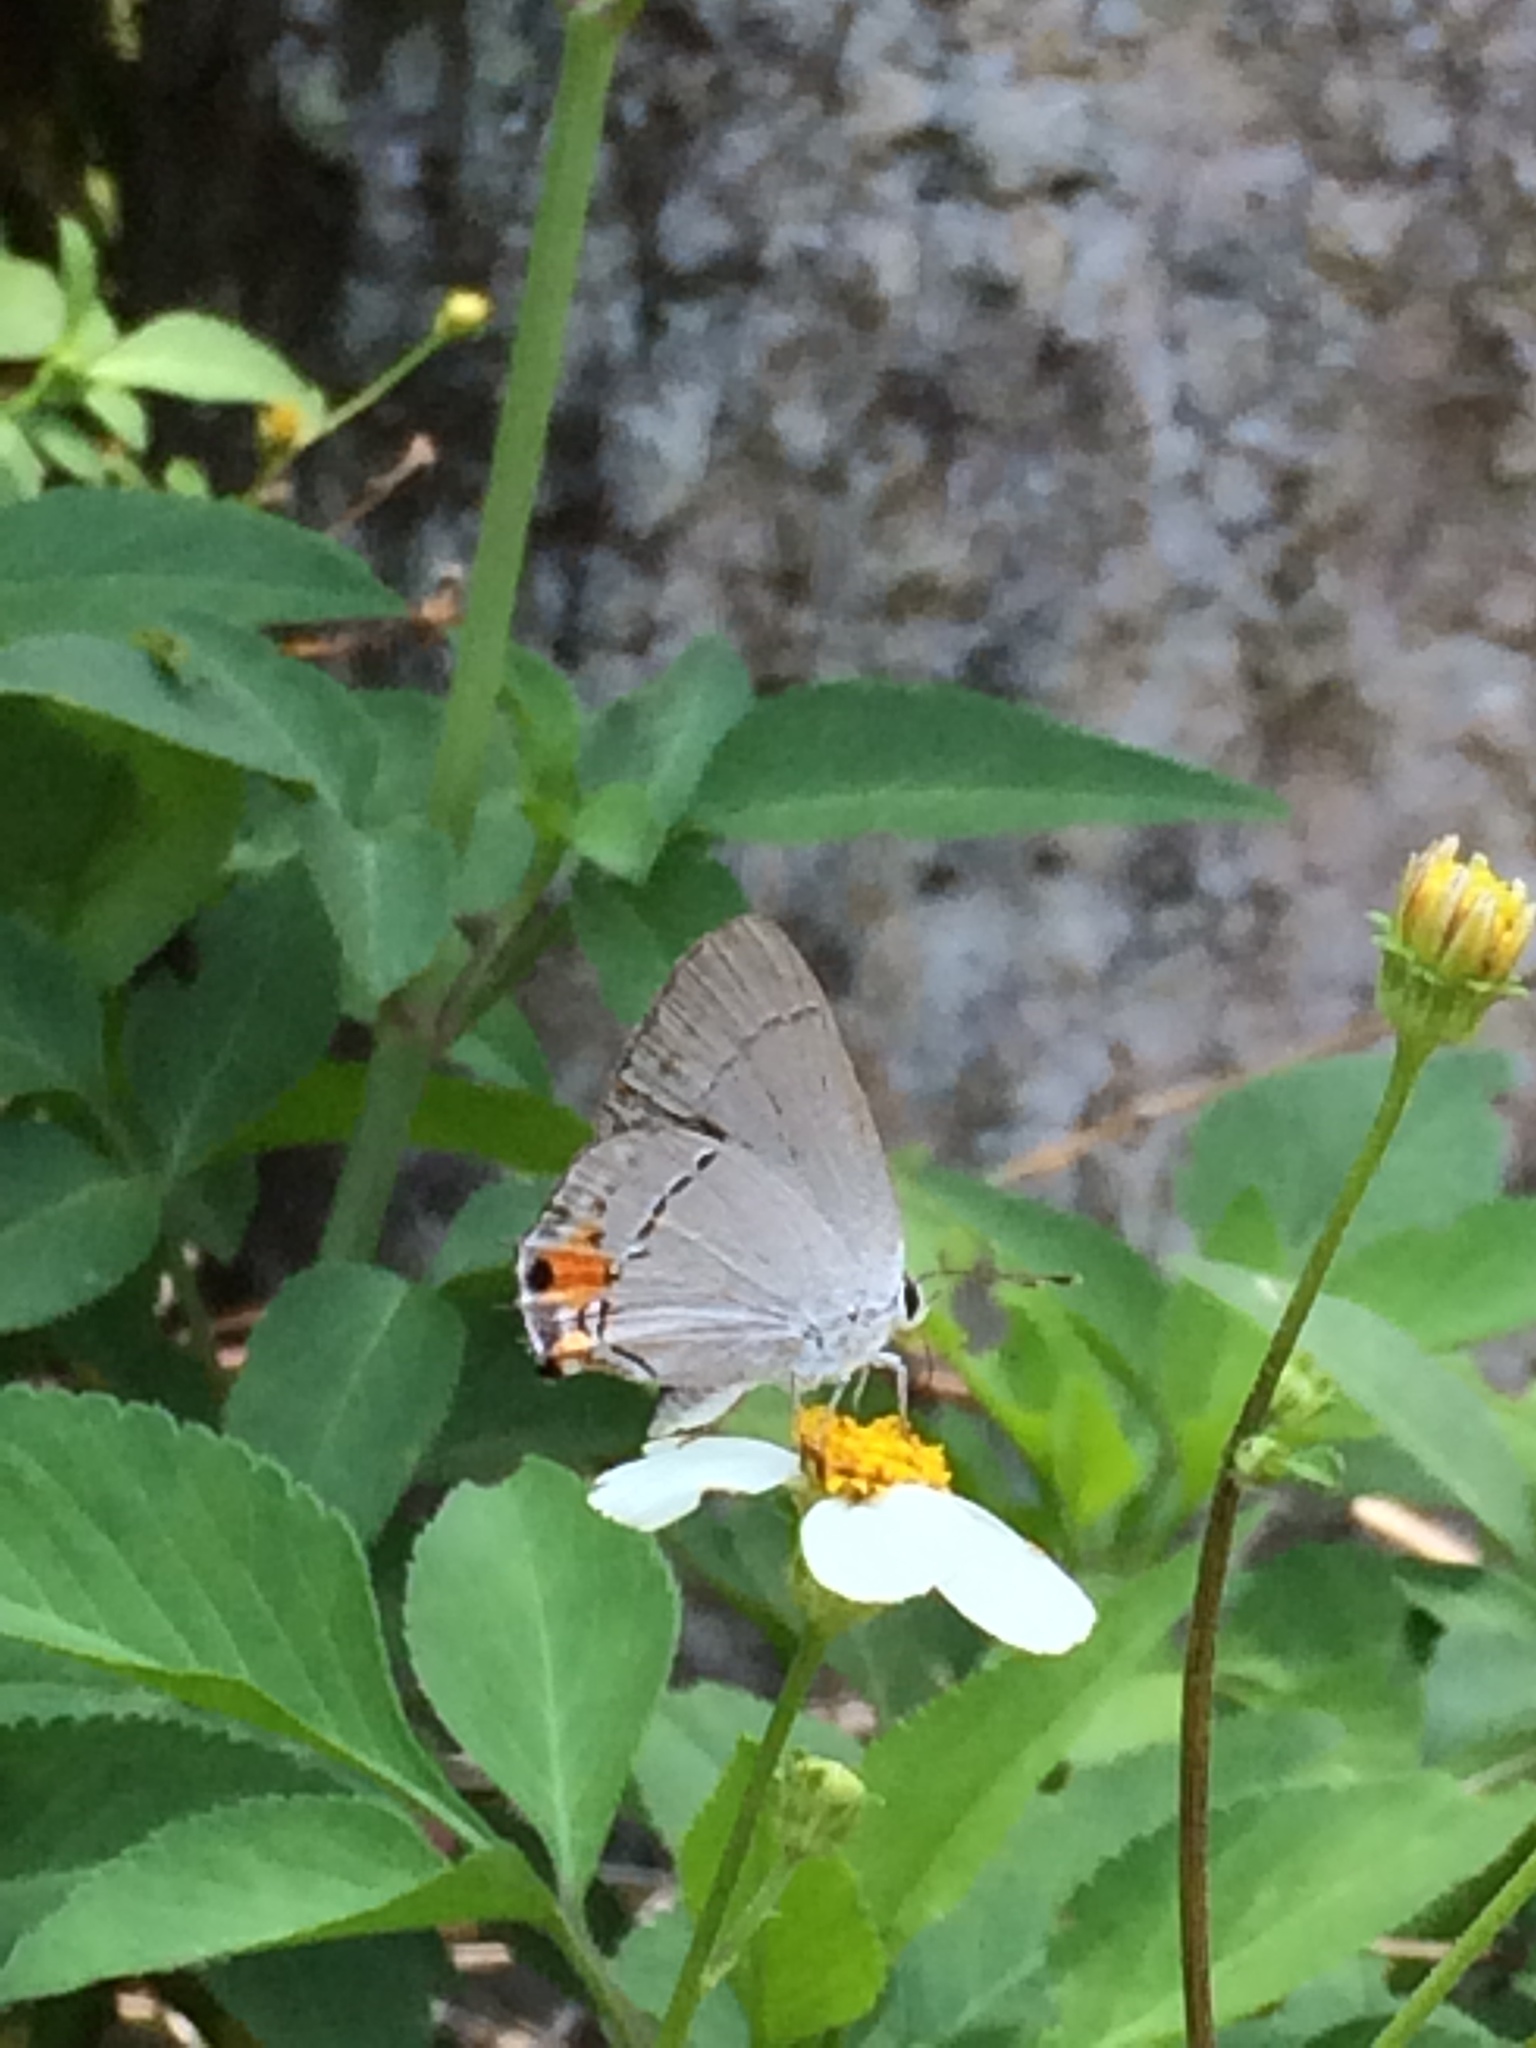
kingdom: Animalia
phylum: Arthropoda
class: Insecta
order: Lepidoptera
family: Lycaenidae
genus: Strymon
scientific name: Strymon melinus
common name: Gray hairstreak
